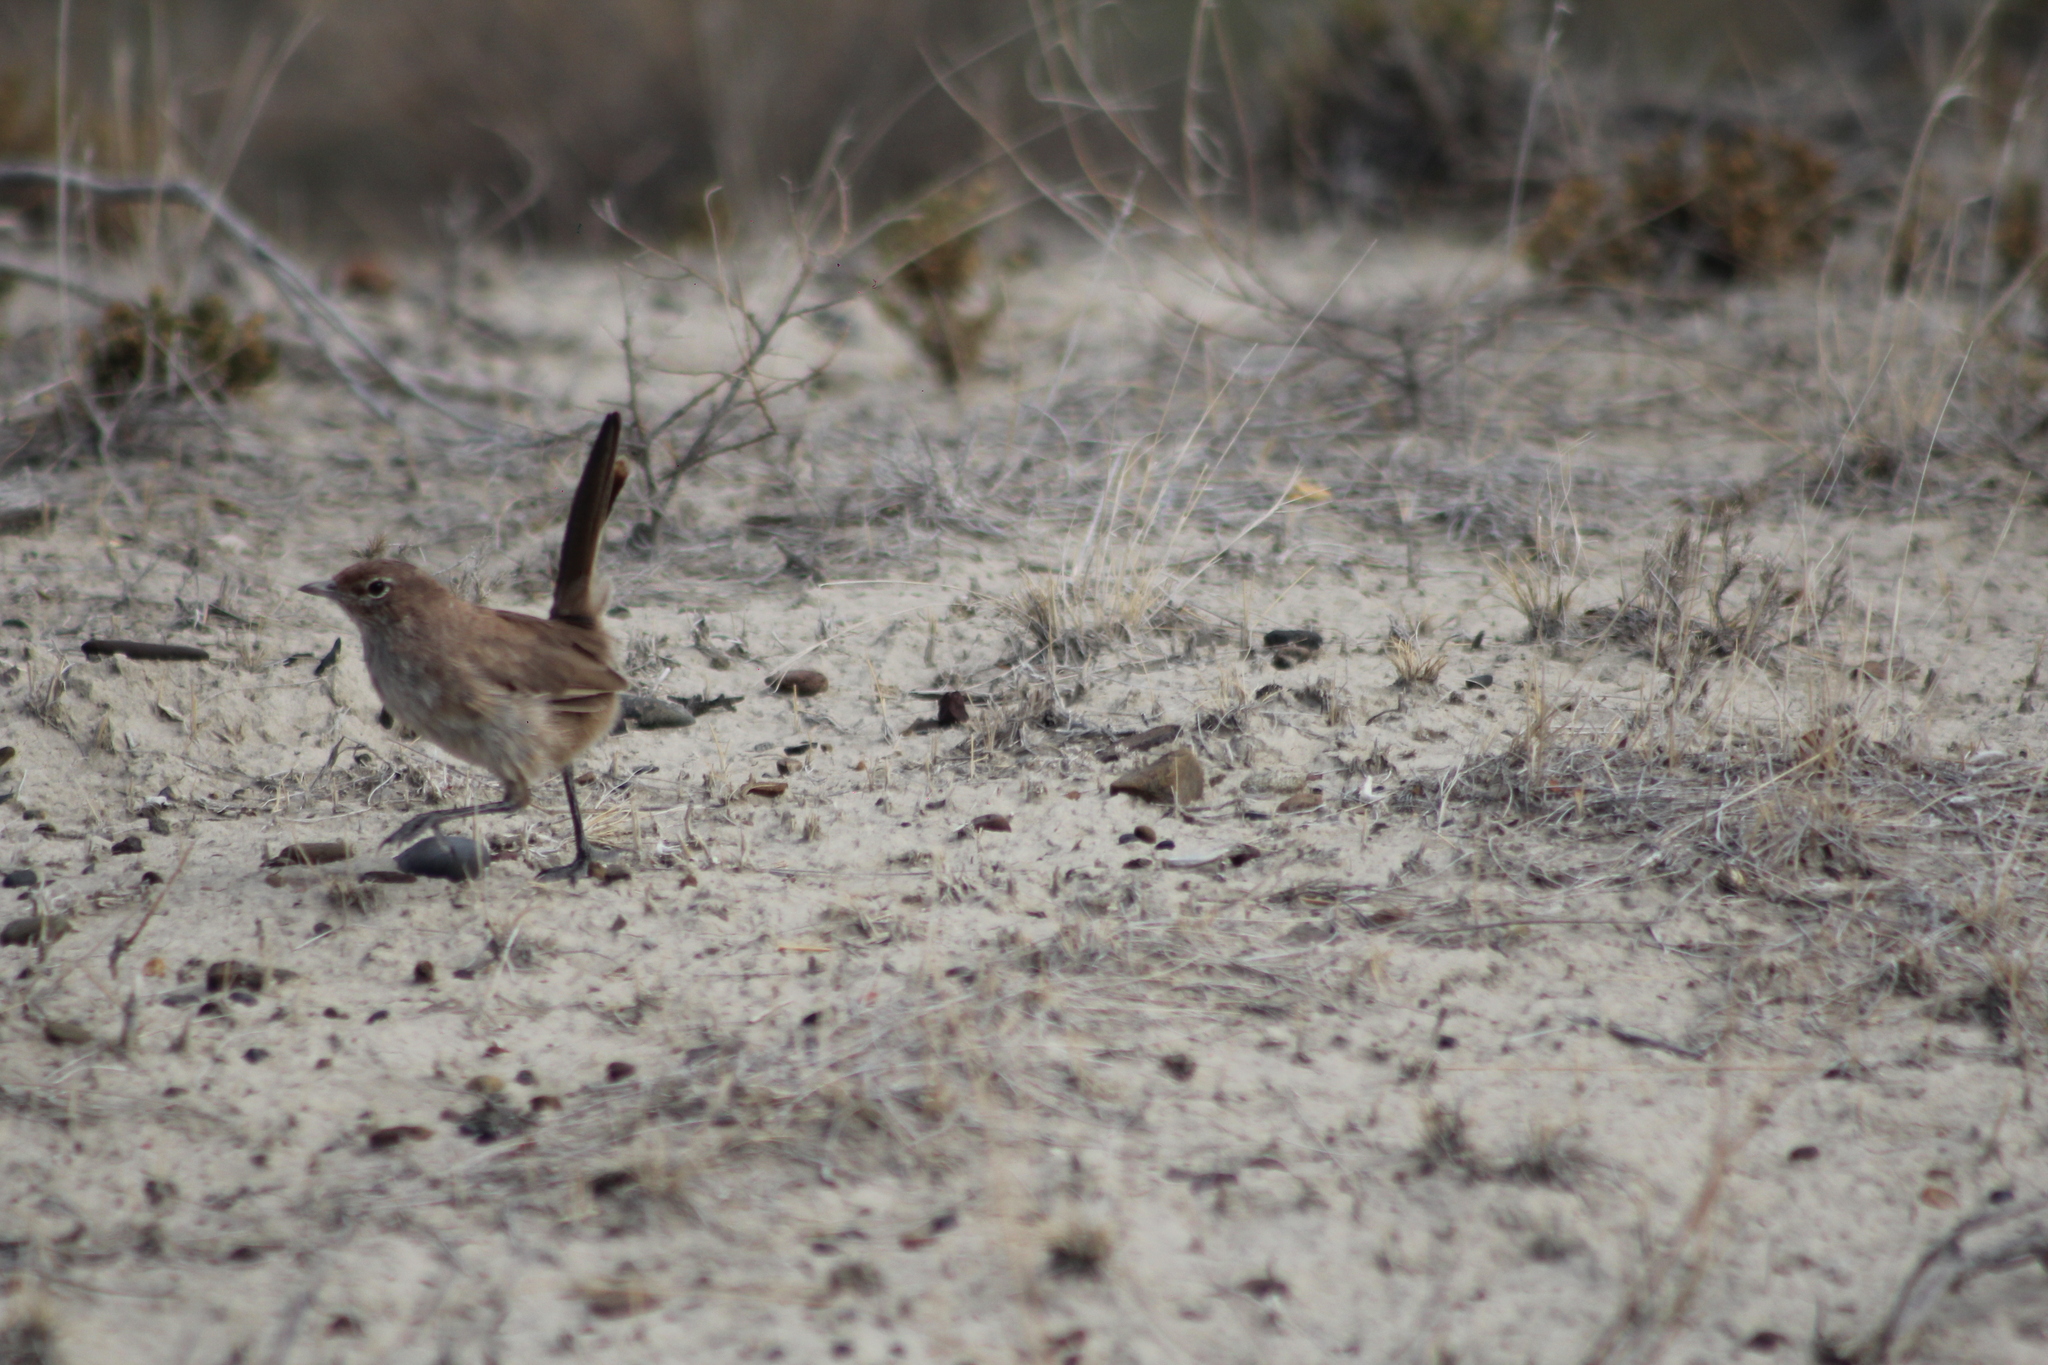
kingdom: Animalia
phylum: Chordata
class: Aves
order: Passeriformes
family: Rhinocryptidae
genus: Teledromas
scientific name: Teledromas fuscus
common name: Sandy gallito
